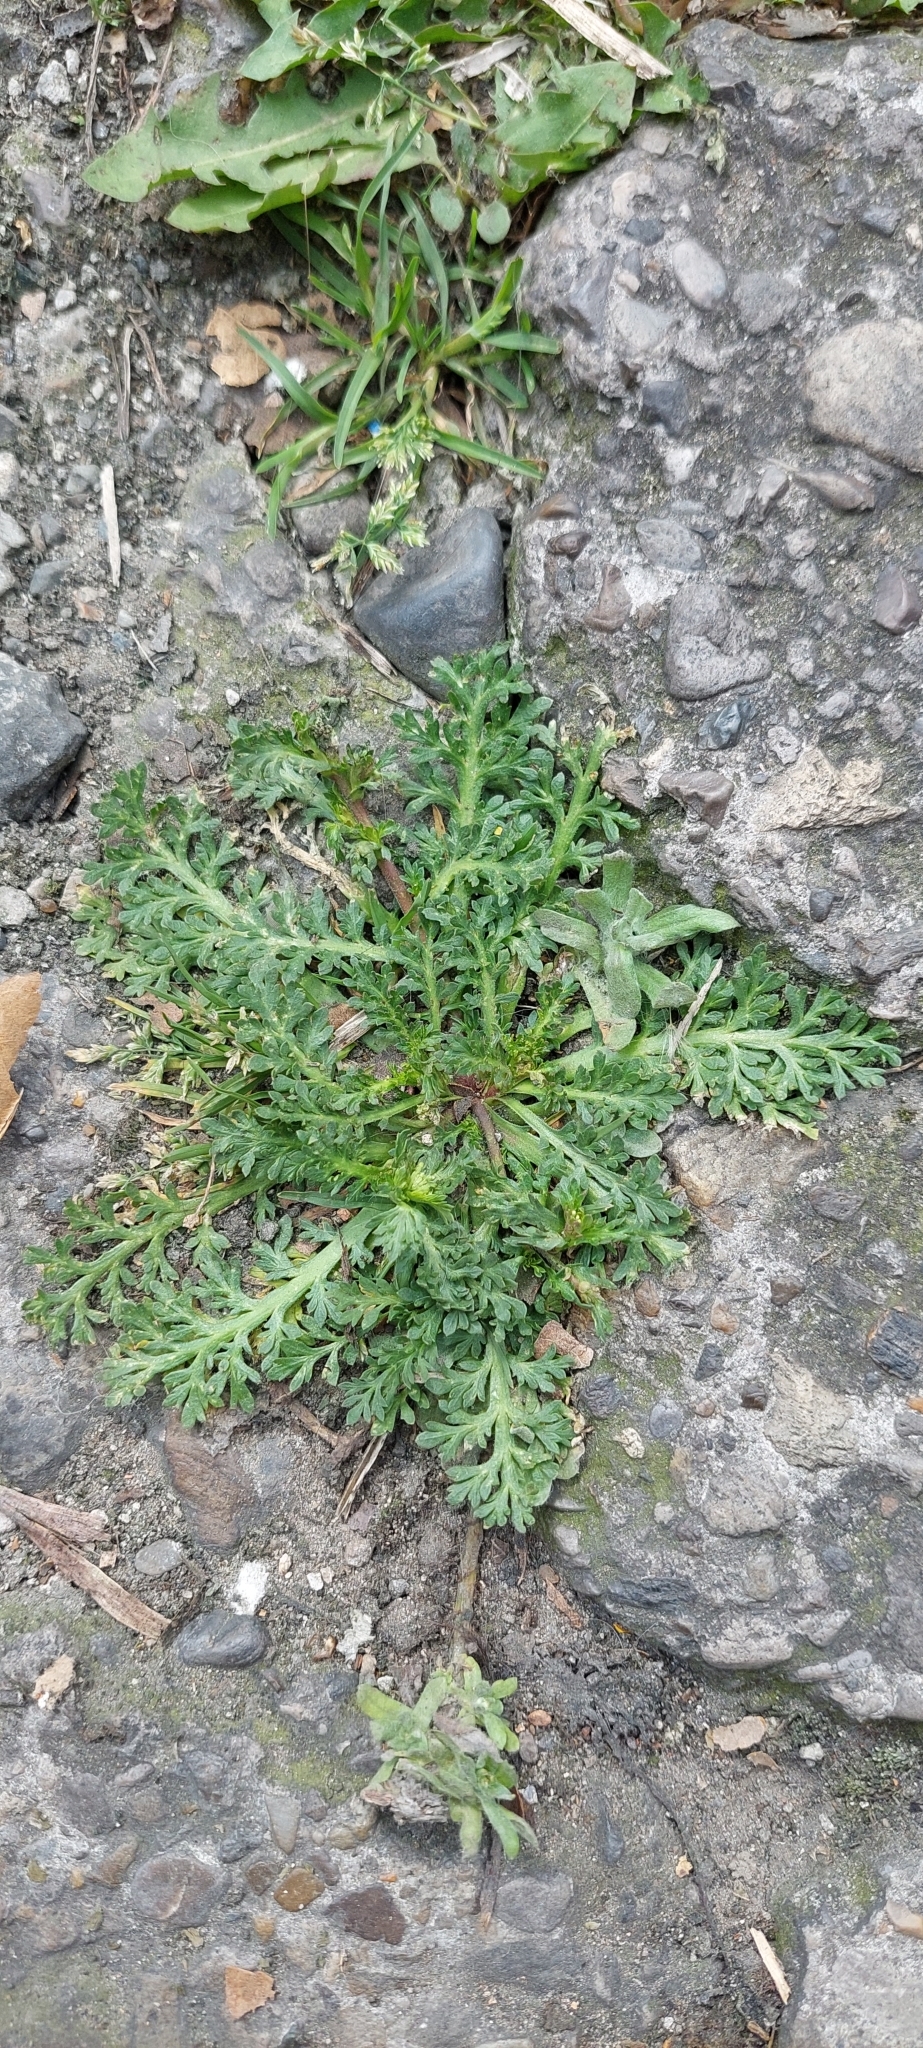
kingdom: Plantae
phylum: Tracheophyta
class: Magnoliopsida
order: Brassicales
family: Brassicaceae
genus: Lepidium
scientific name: Lepidium bipinnatifidum
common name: Wayside pepperwort
